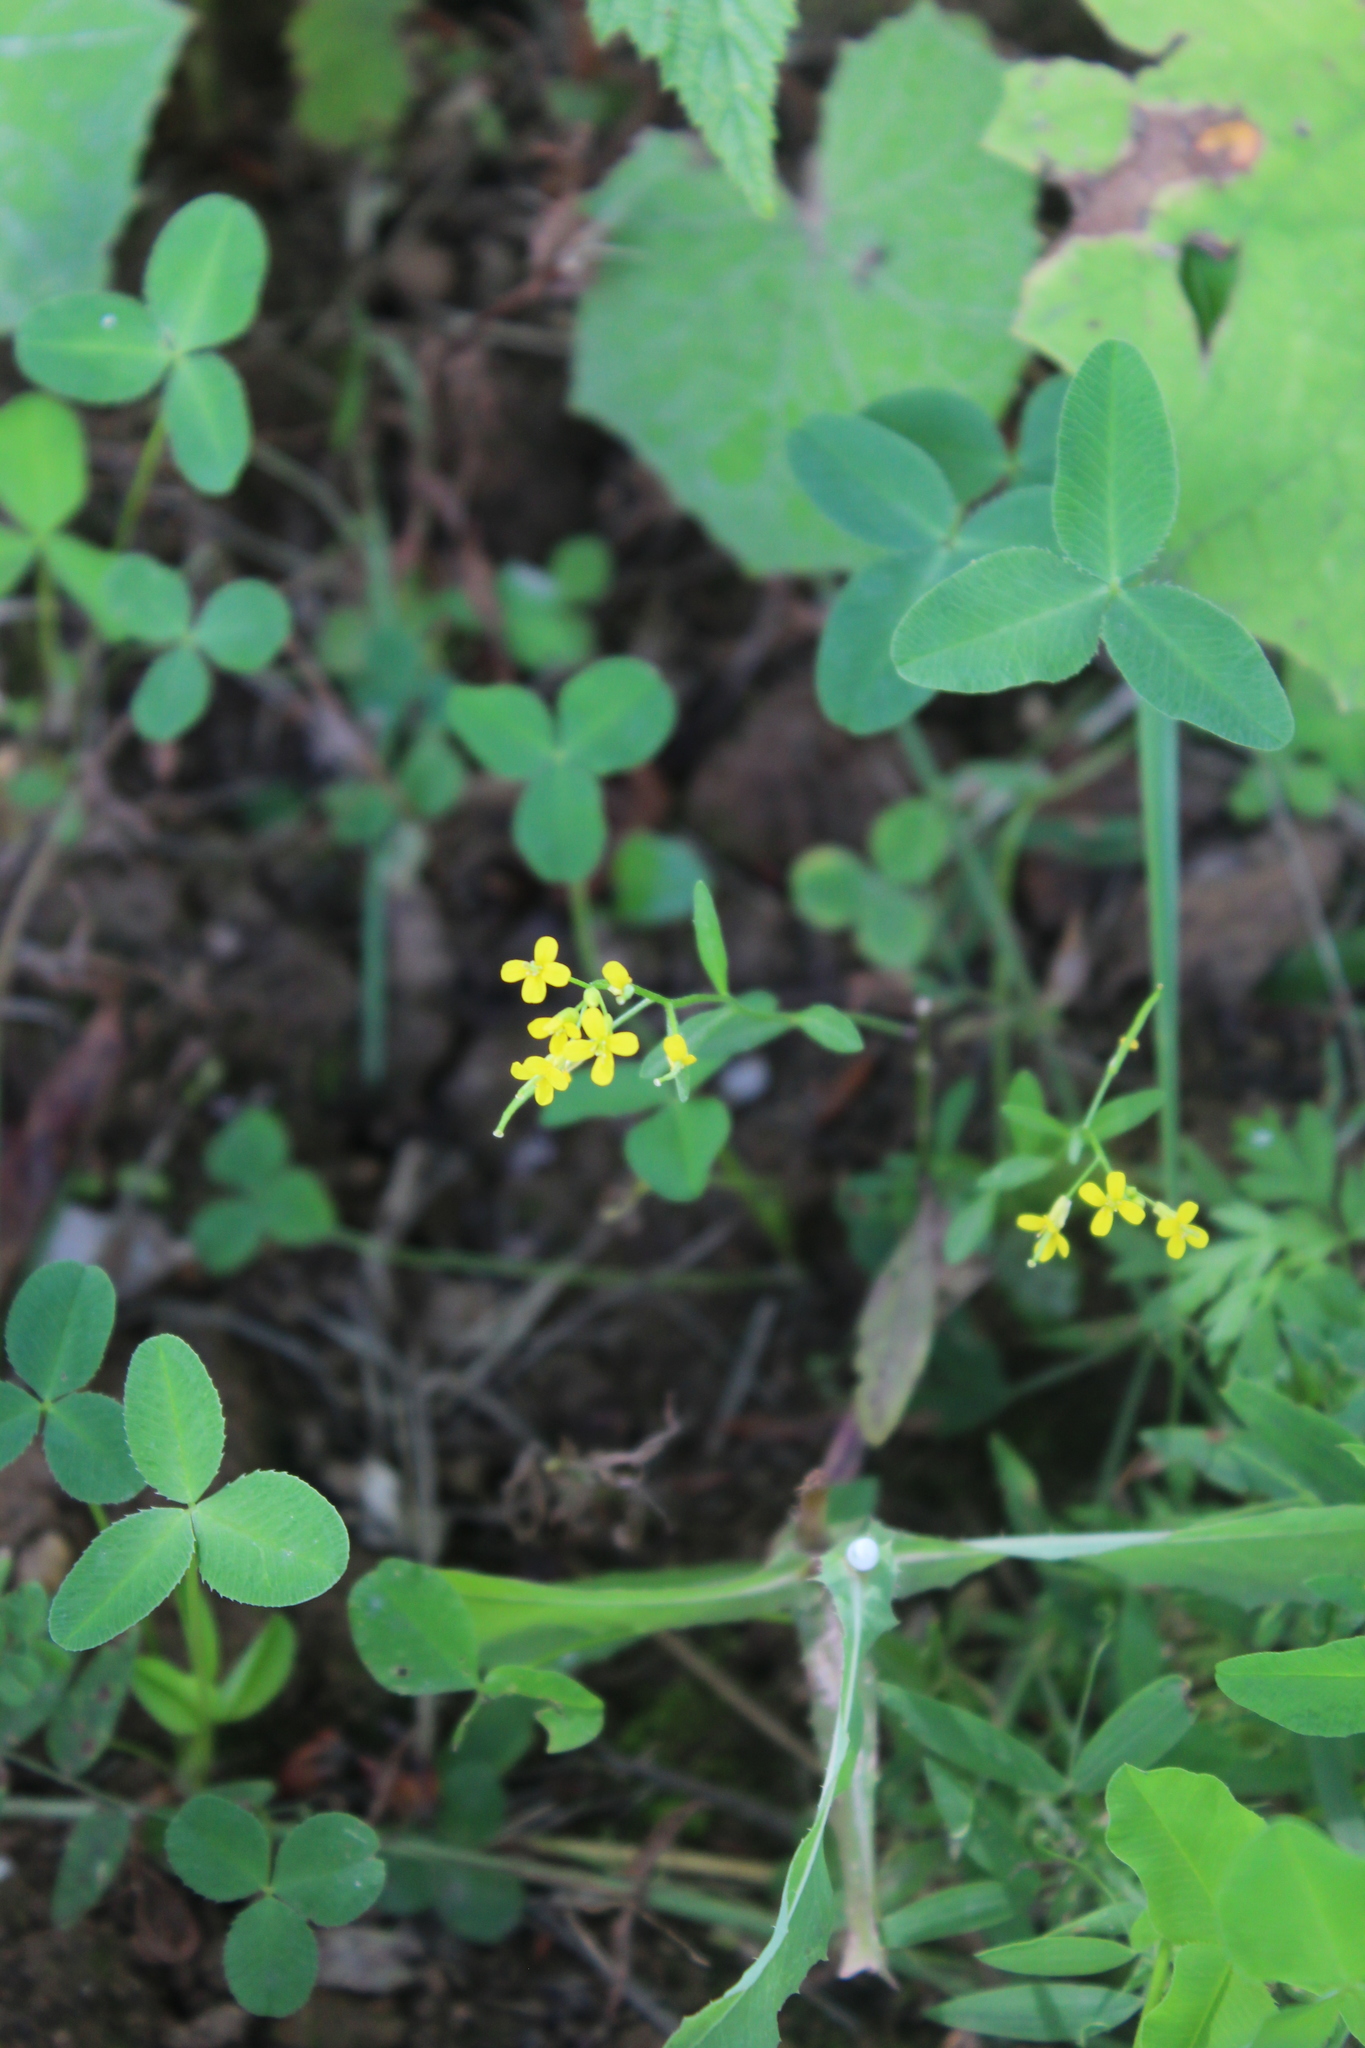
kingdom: Plantae
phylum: Tracheophyta
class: Magnoliopsida
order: Brassicales
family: Brassicaceae
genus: Erysimum
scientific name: Erysimum cheiranthoides
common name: Treacle mustard
